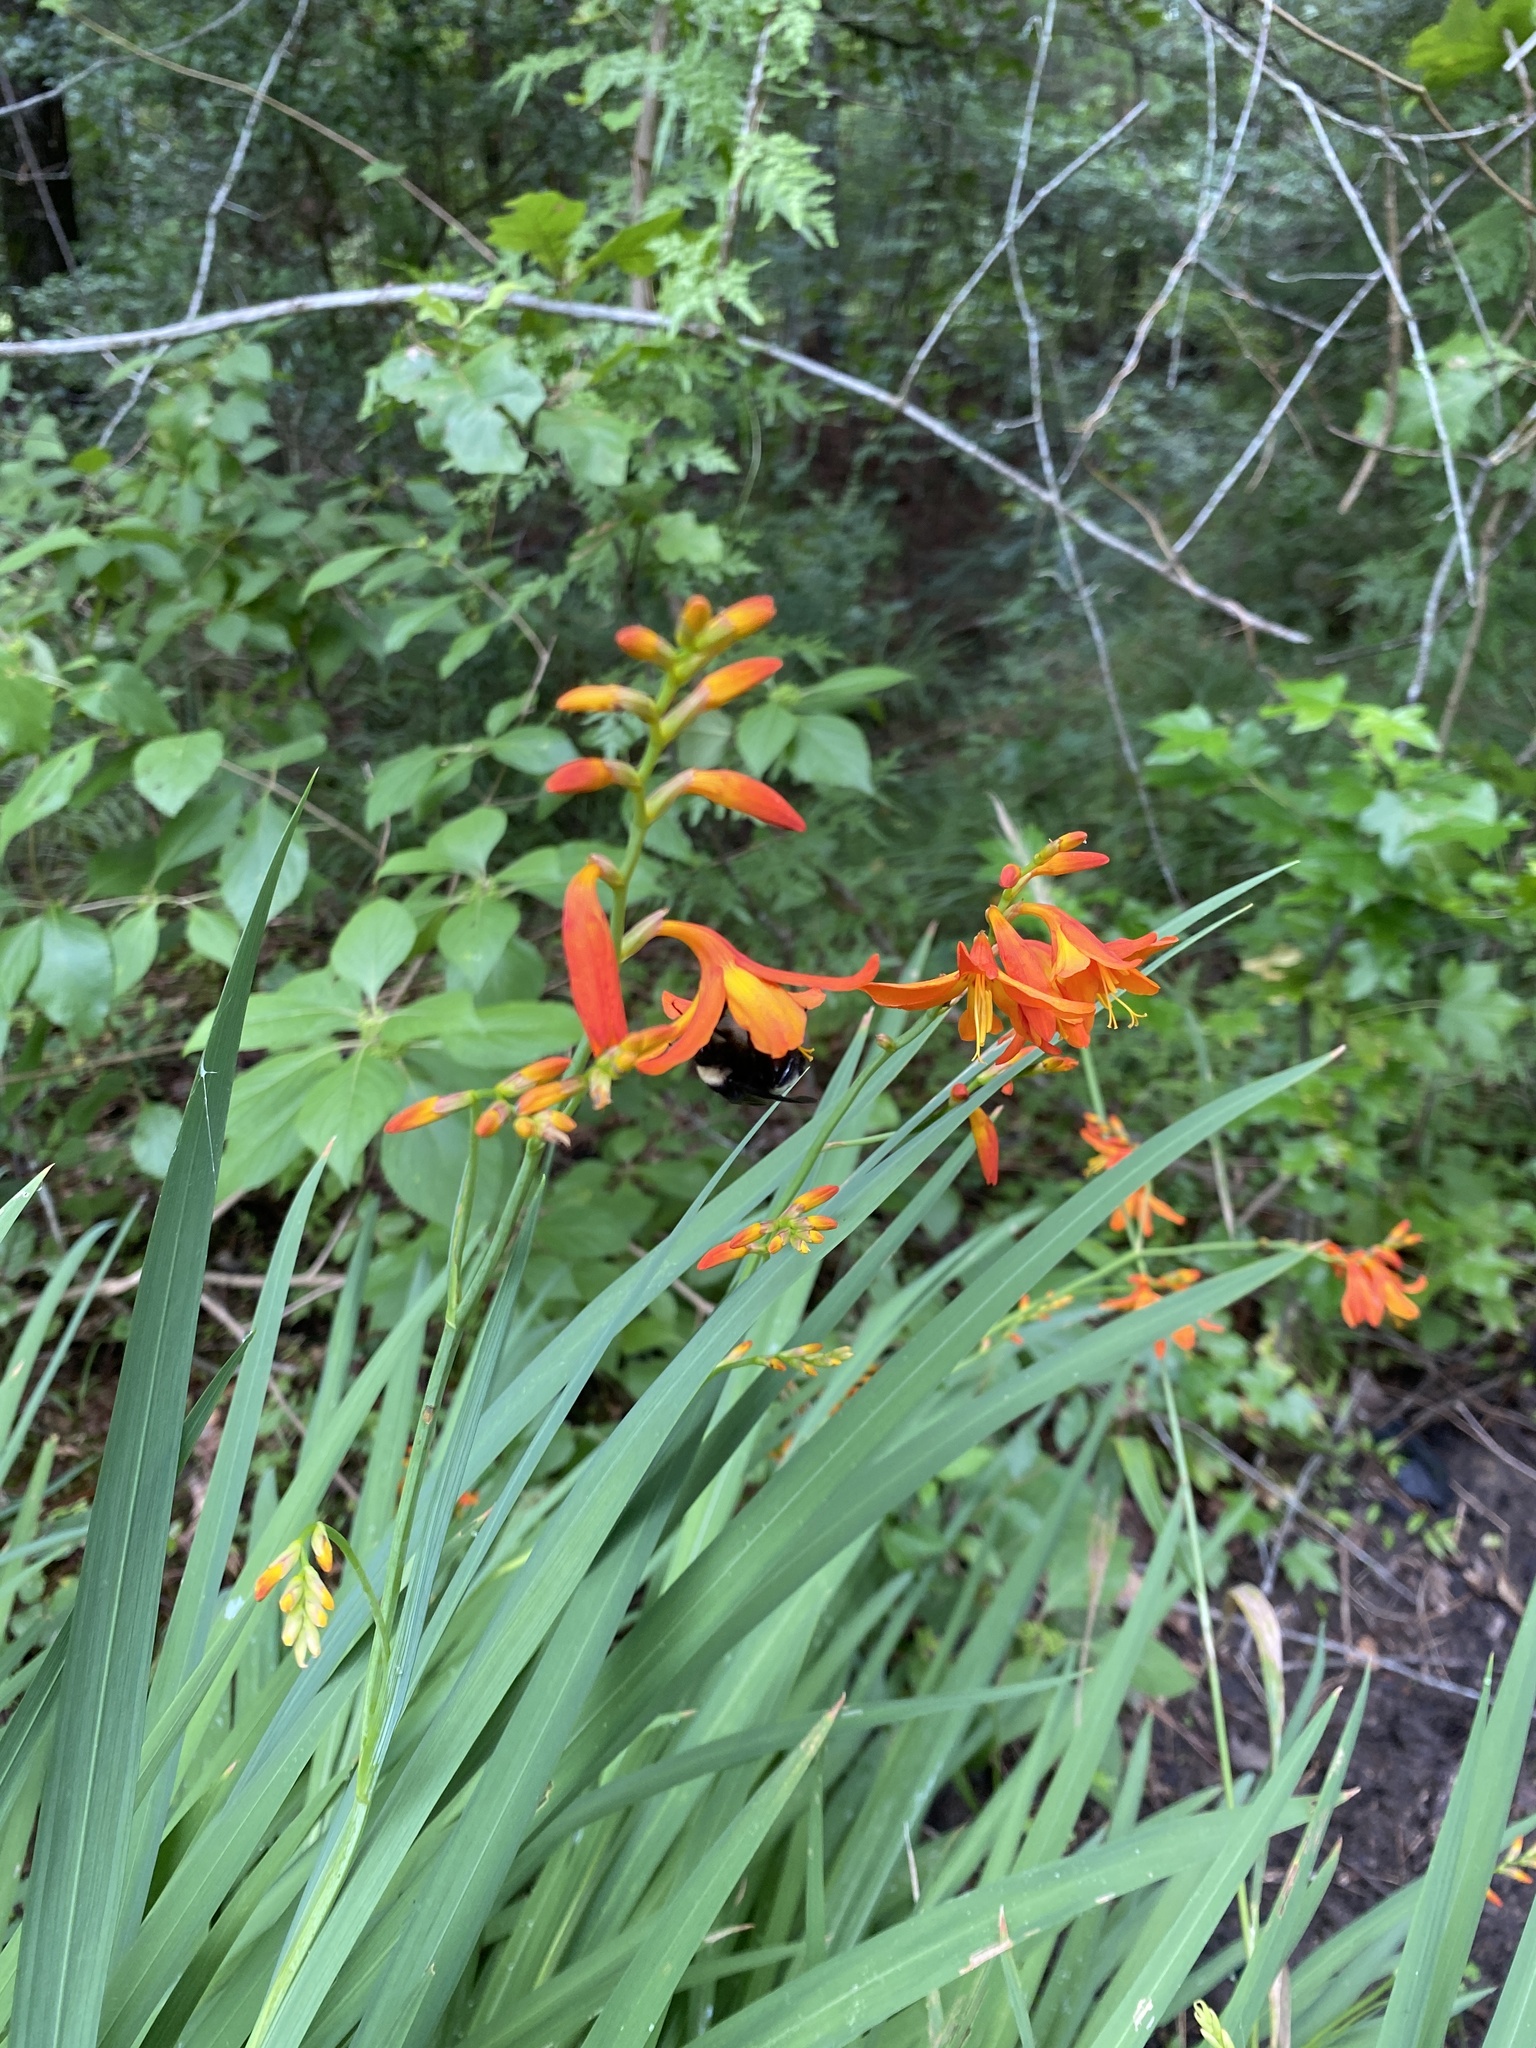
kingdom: Plantae
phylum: Tracheophyta
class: Liliopsida
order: Asparagales
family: Iridaceae
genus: Crocosmia
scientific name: Crocosmia crocosmiiflora
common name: Montbretia
